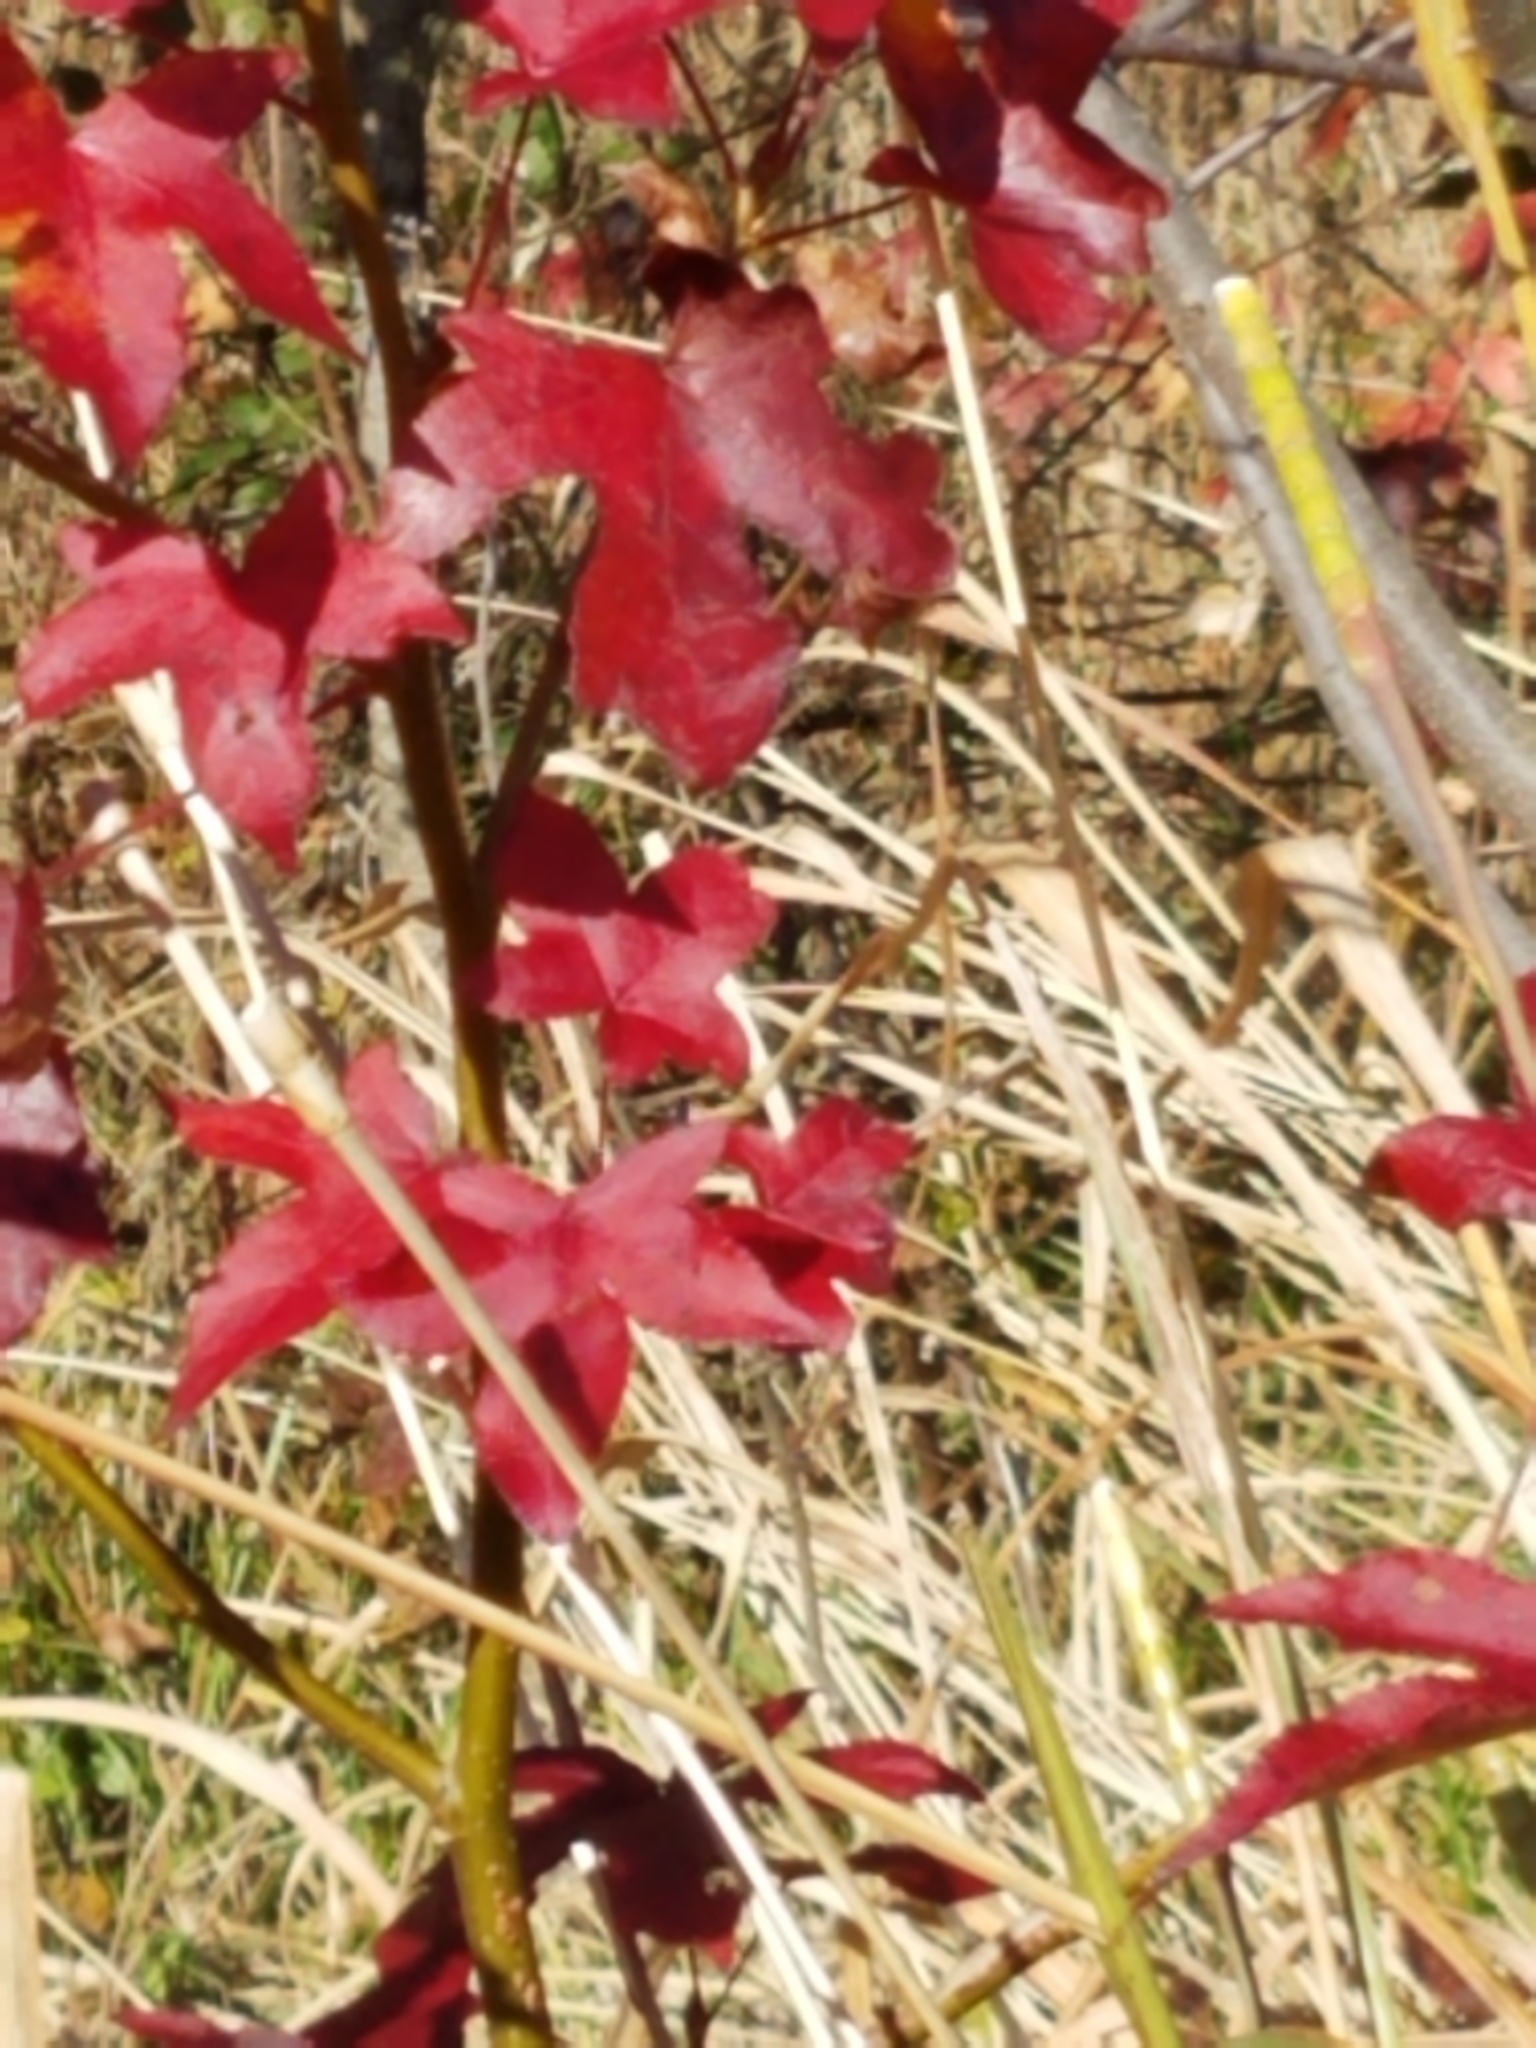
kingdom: Plantae
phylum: Tracheophyta
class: Magnoliopsida
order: Saxifragales
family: Altingiaceae
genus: Liquidambar
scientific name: Liquidambar styraciflua
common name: Sweet gum
